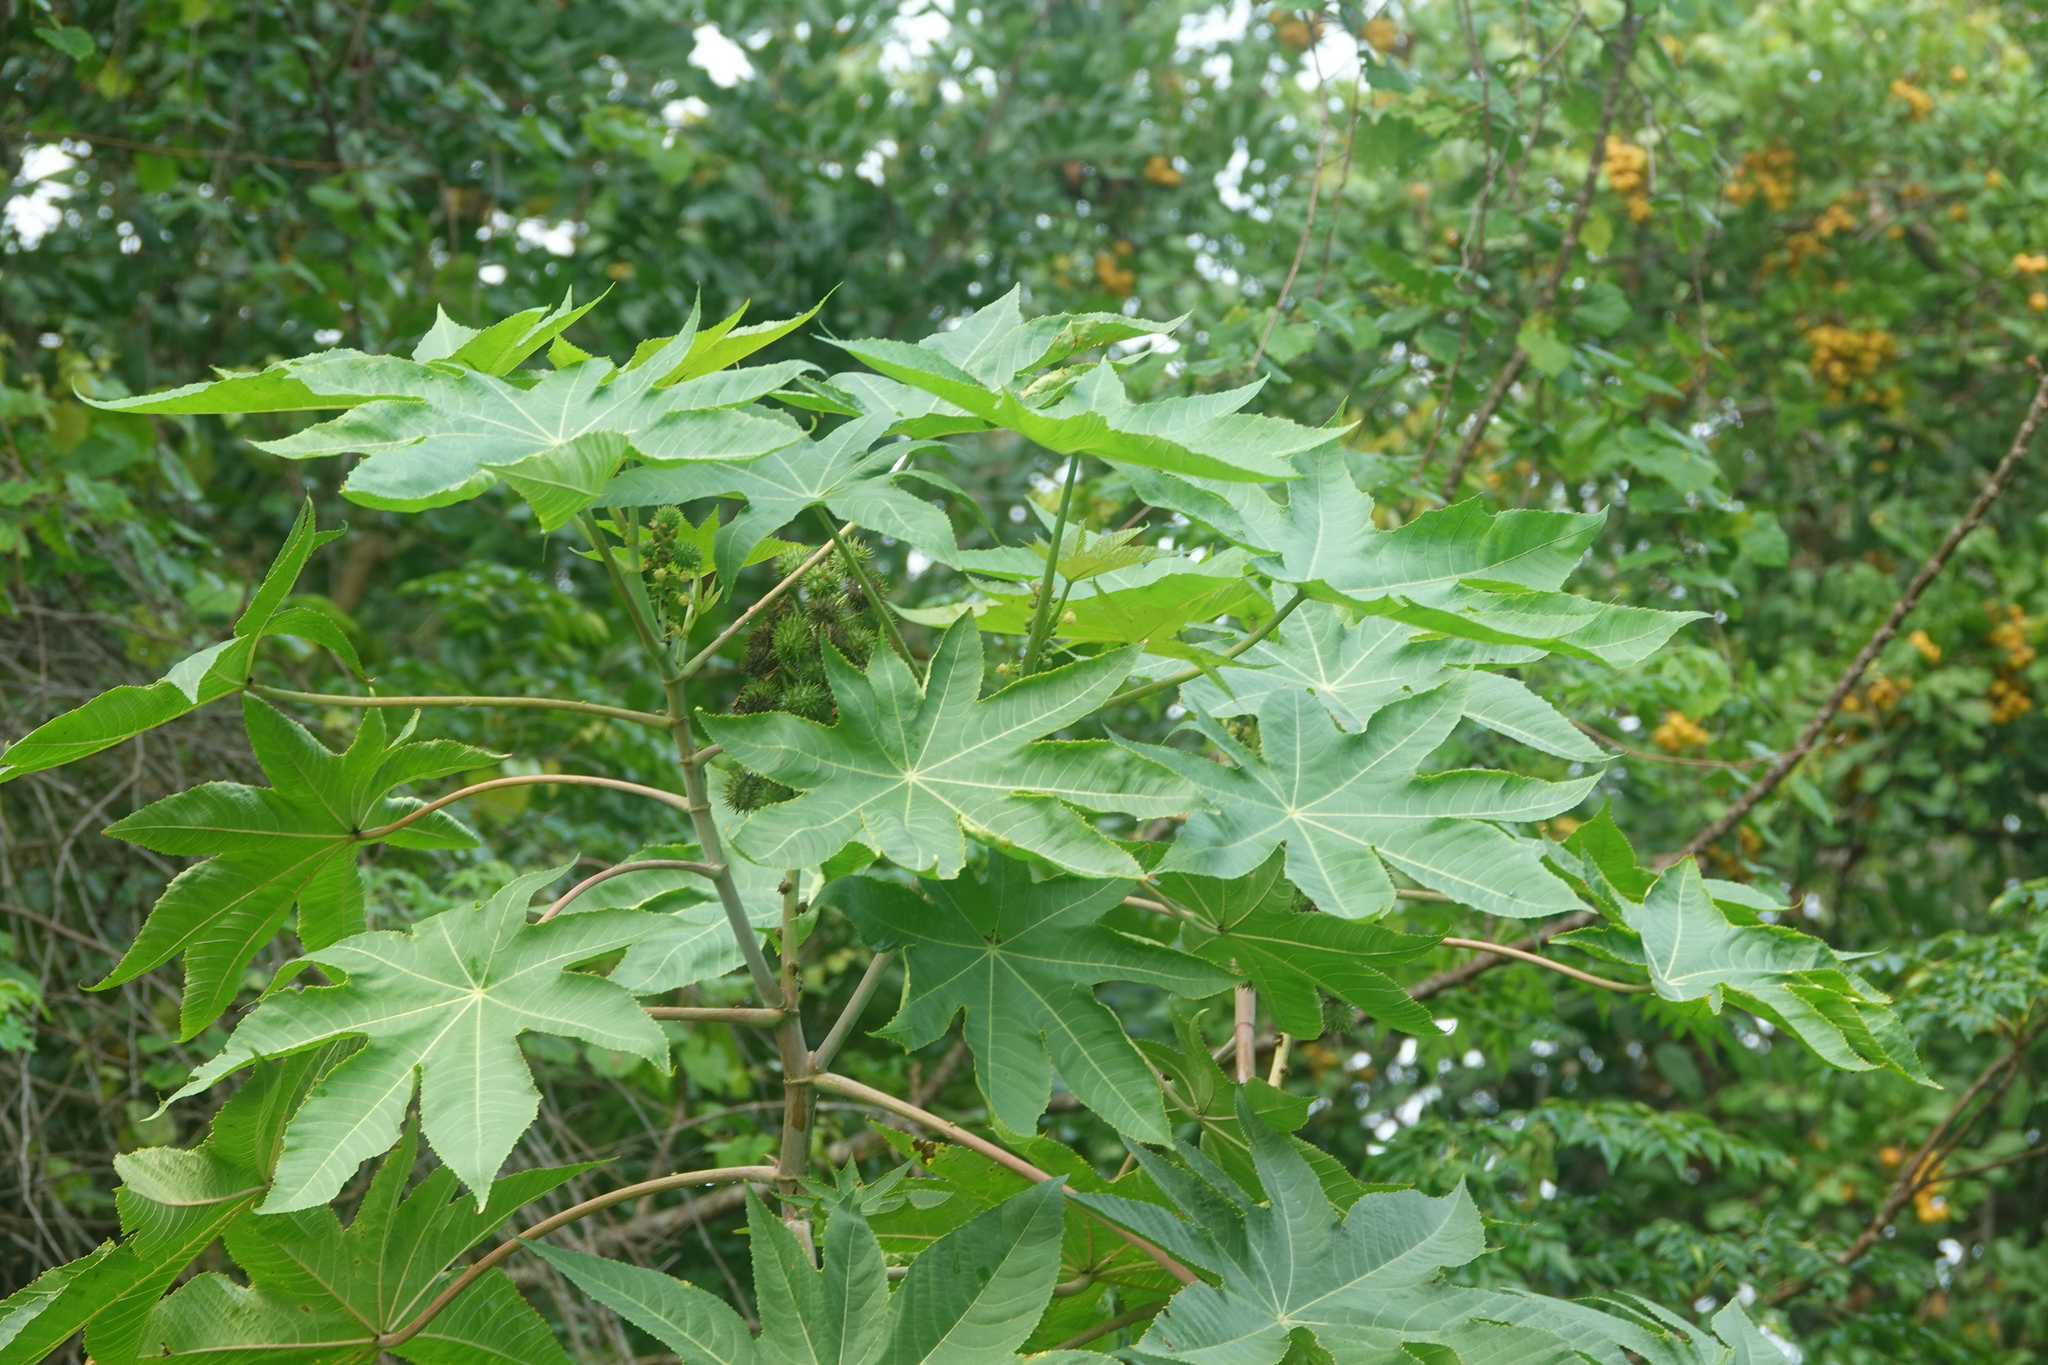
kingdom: Plantae
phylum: Tracheophyta
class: Magnoliopsida
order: Malpighiales
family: Euphorbiaceae
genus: Ricinus
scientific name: Ricinus communis
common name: Castor-oil-plant
